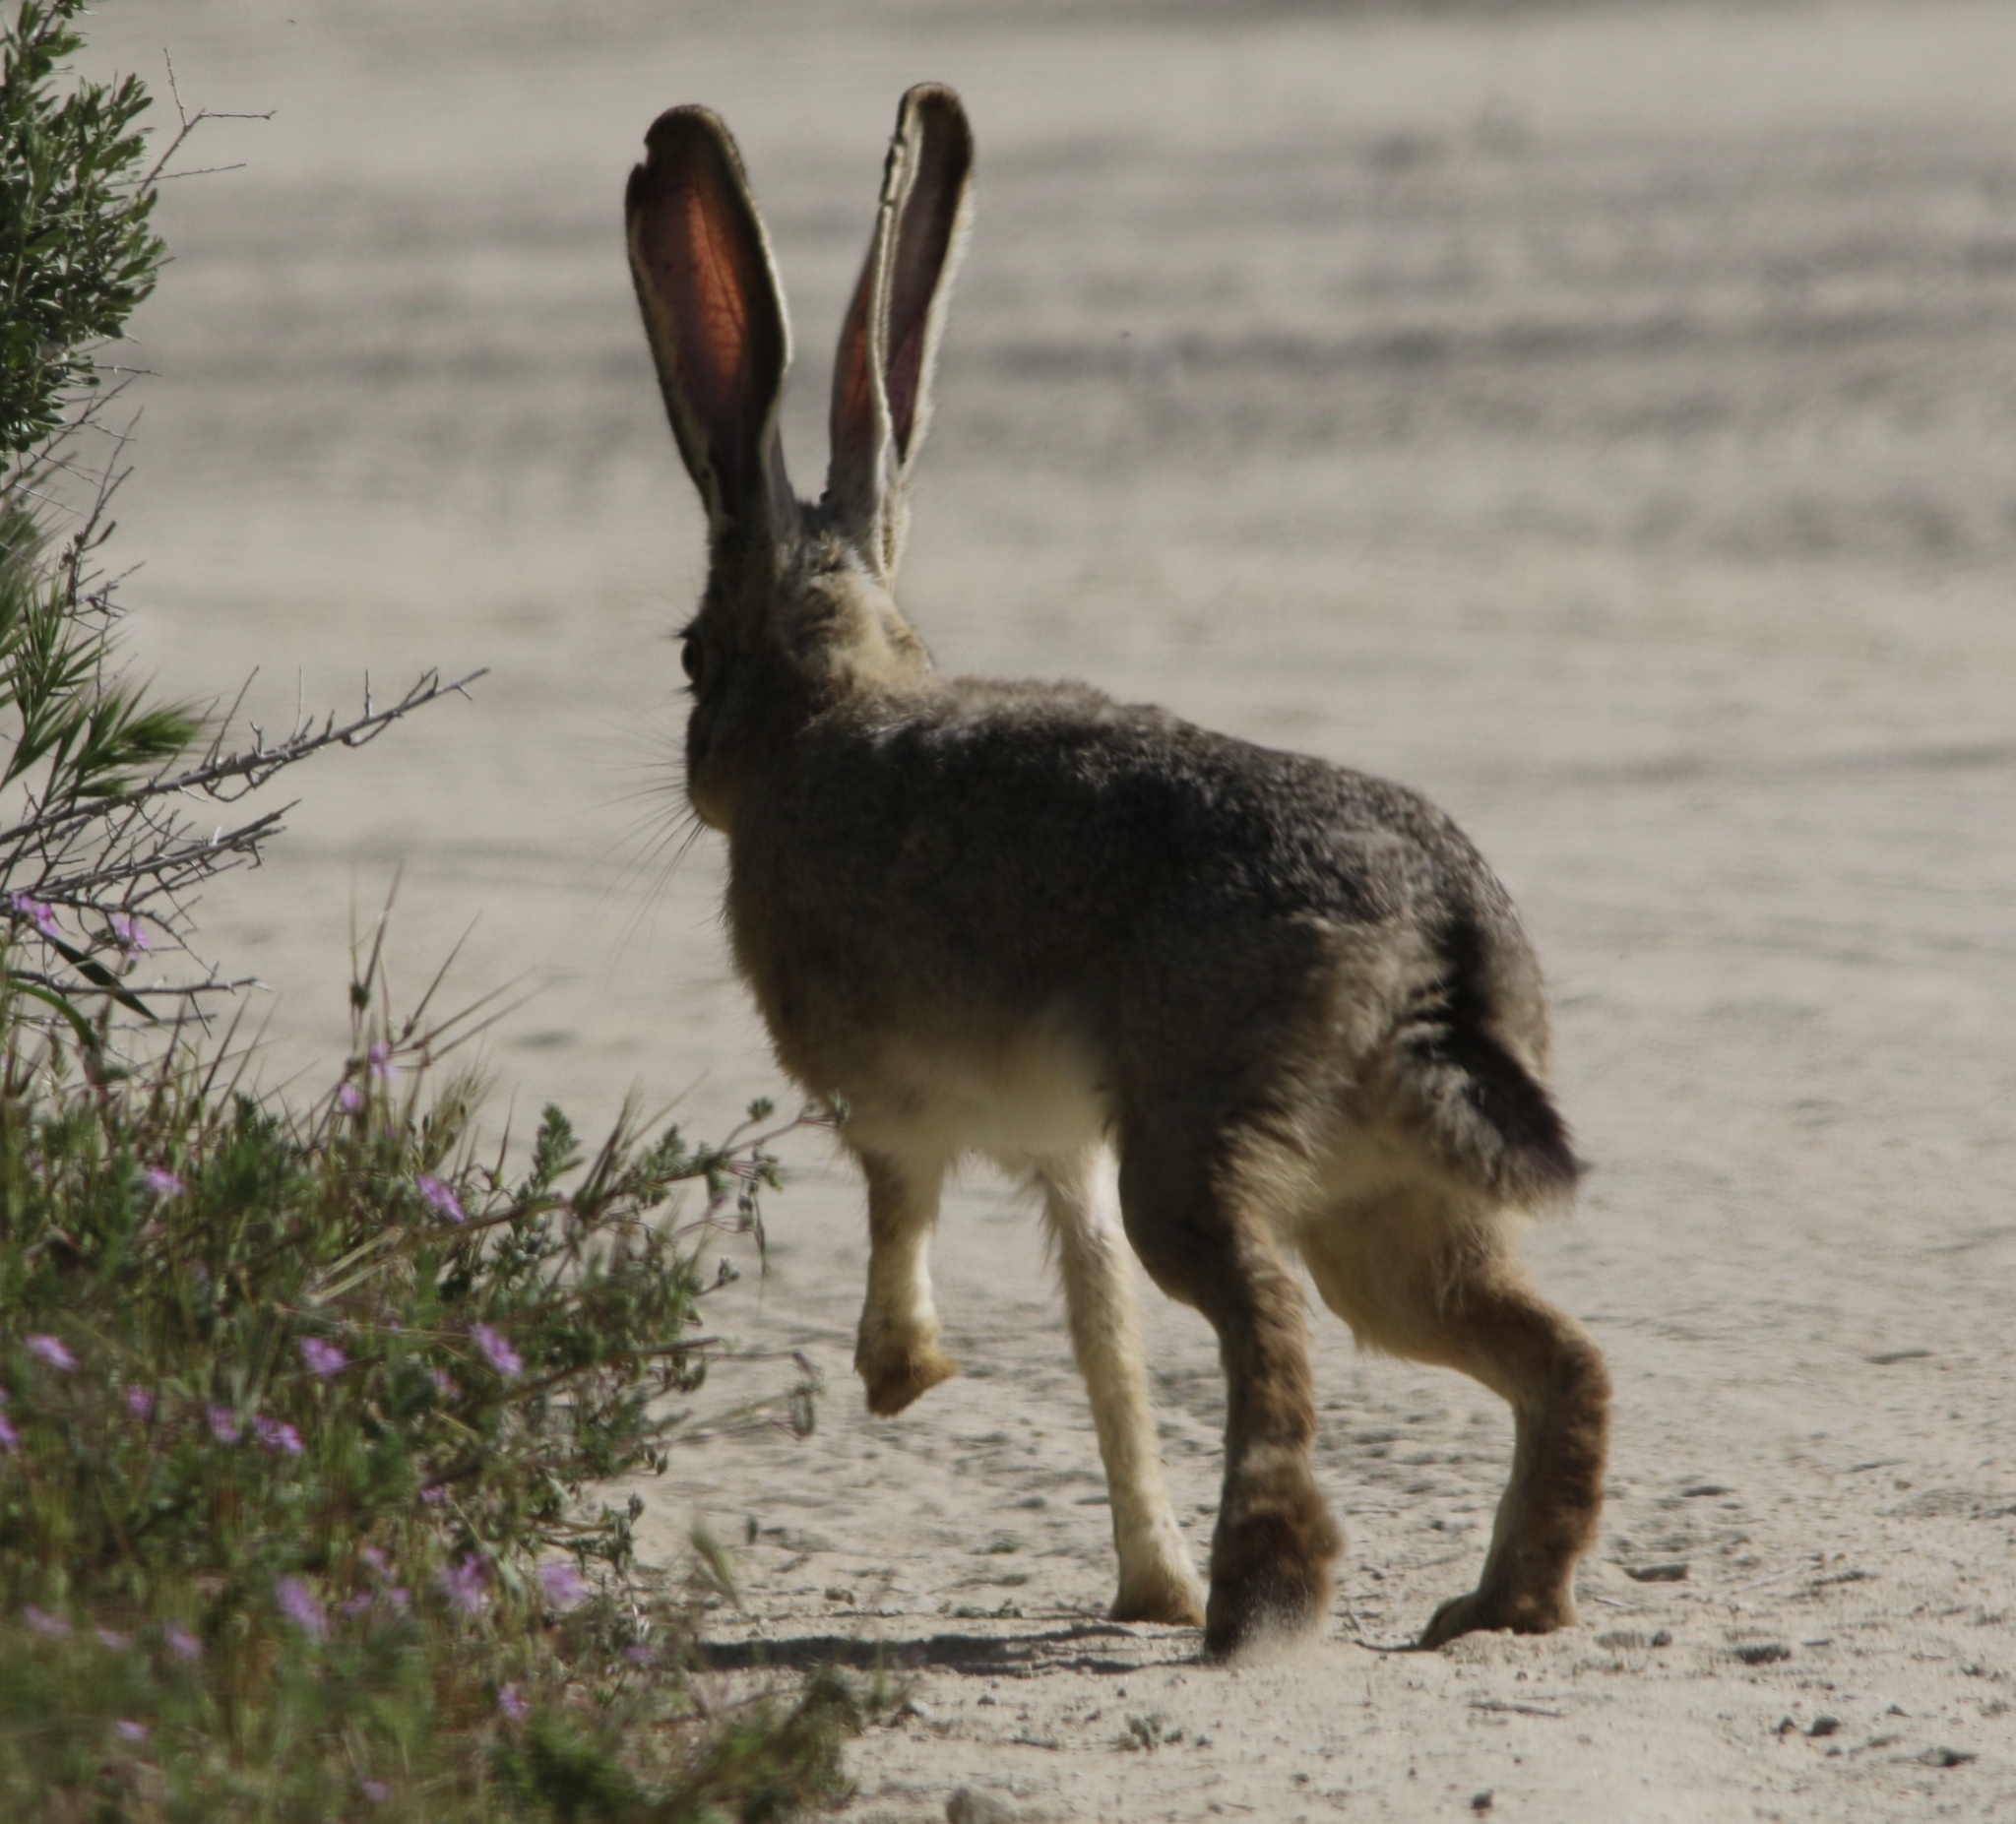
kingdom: Animalia
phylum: Chordata
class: Mammalia
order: Lagomorpha
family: Leporidae
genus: Lepus
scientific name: Lepus californicus
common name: Black-tailed jackrabbit
